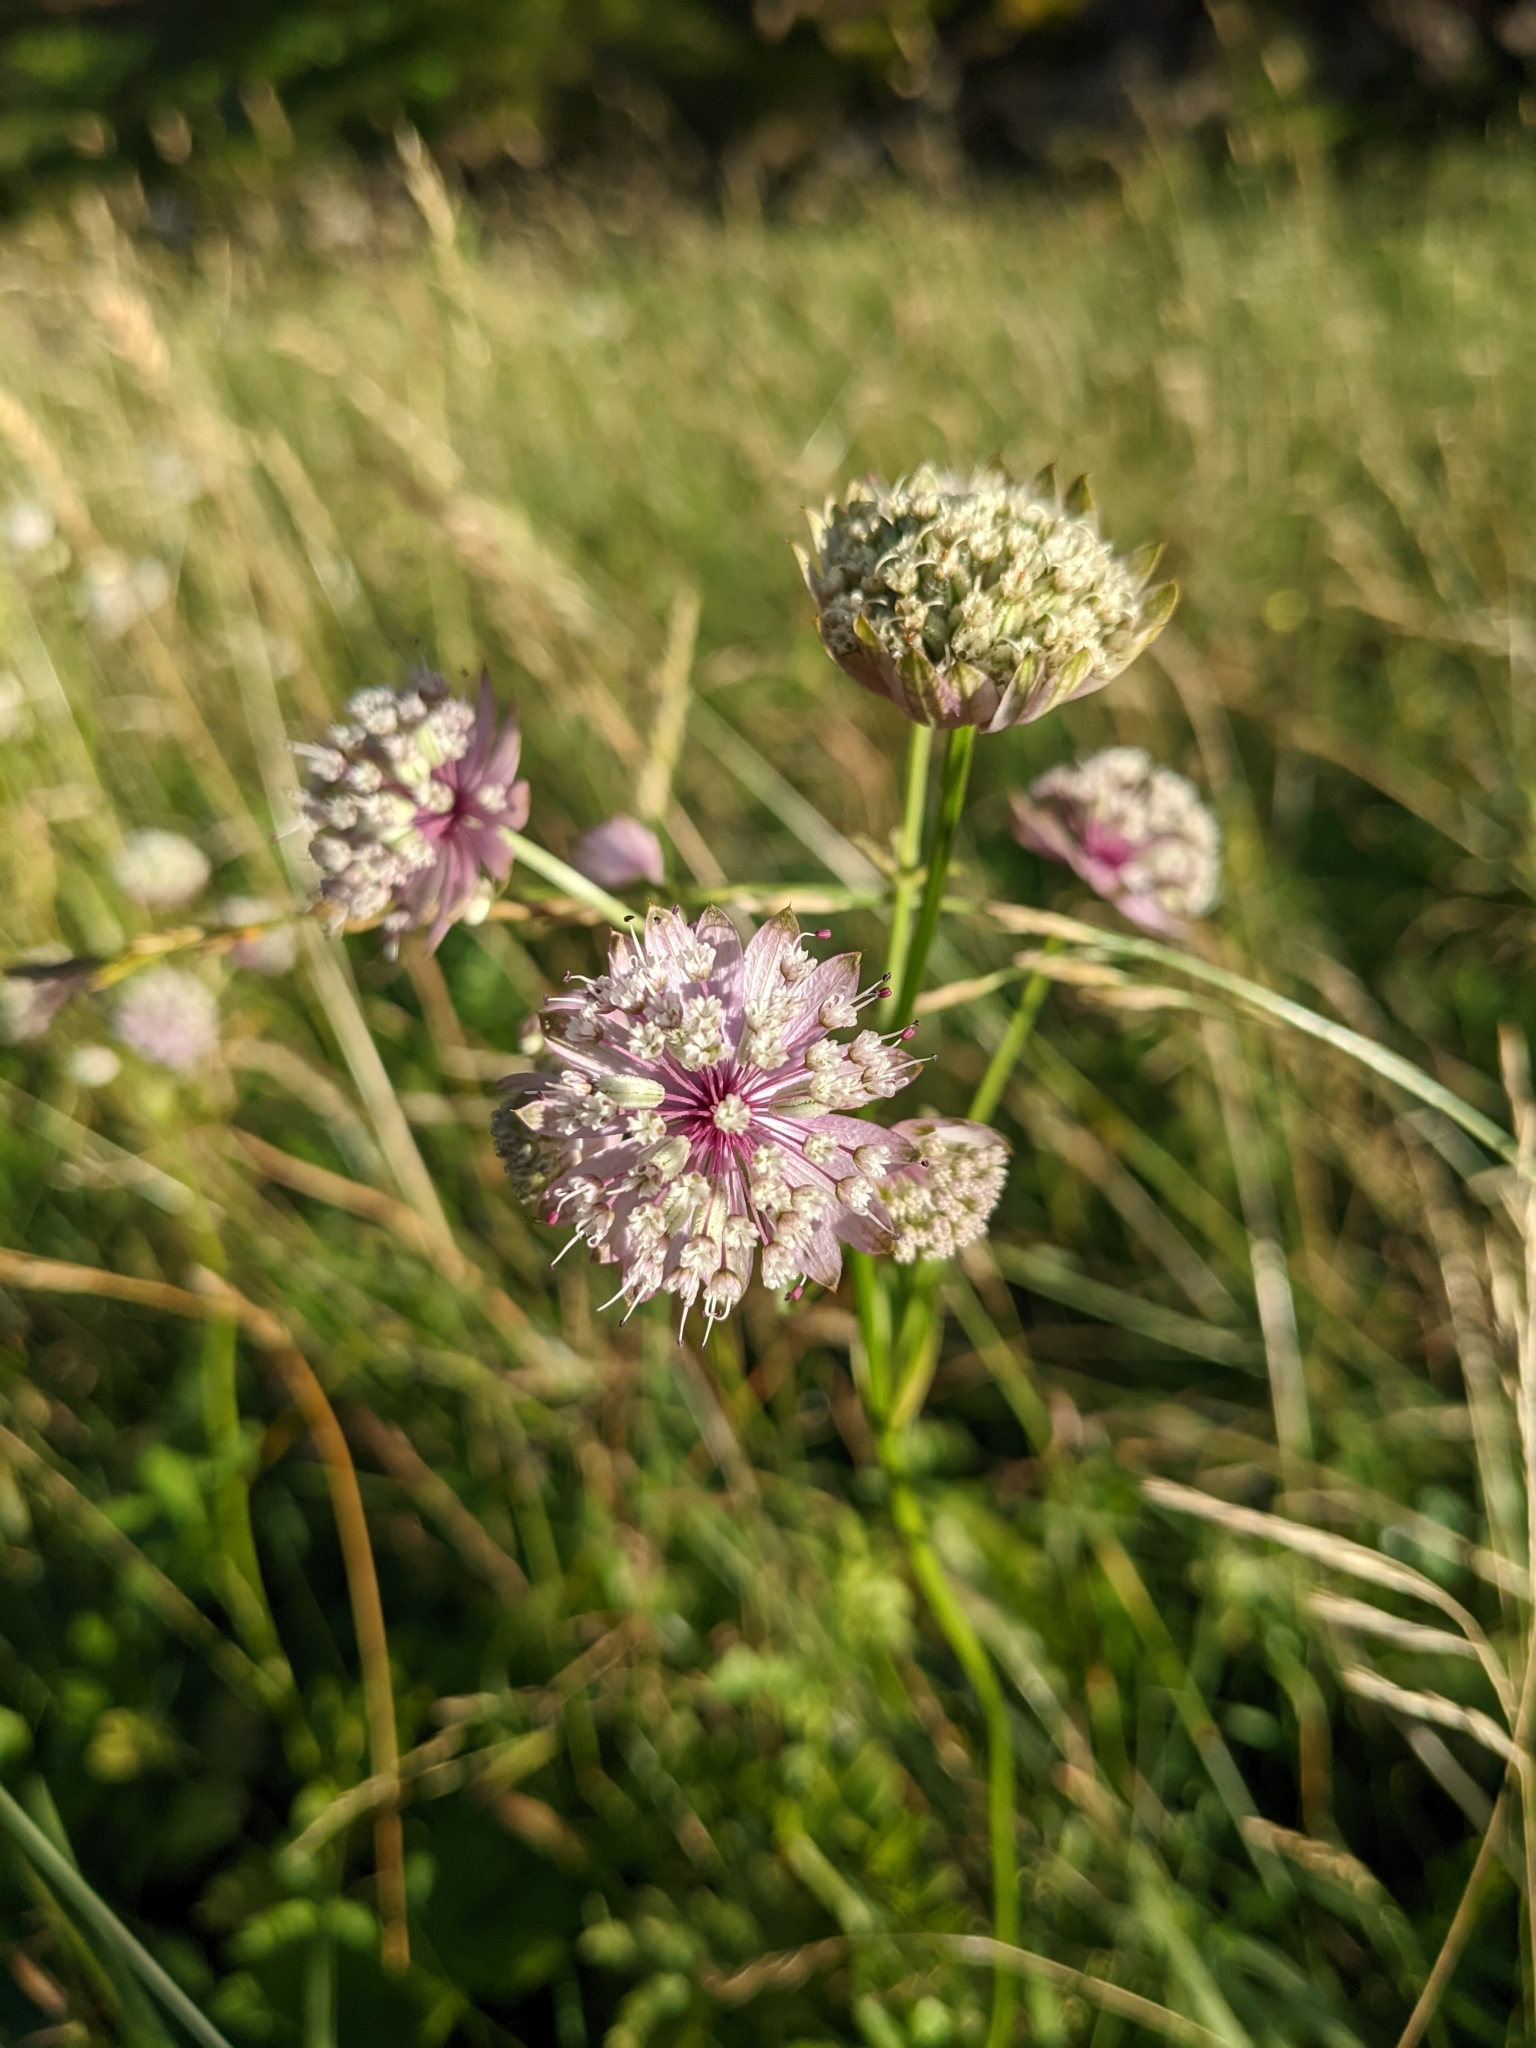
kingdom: Plantae
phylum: Tracheophyta
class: Magnoliopsida
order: Apiales
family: Apiaceae
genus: Astrantia
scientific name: Astrantia major
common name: Greater masterwort
